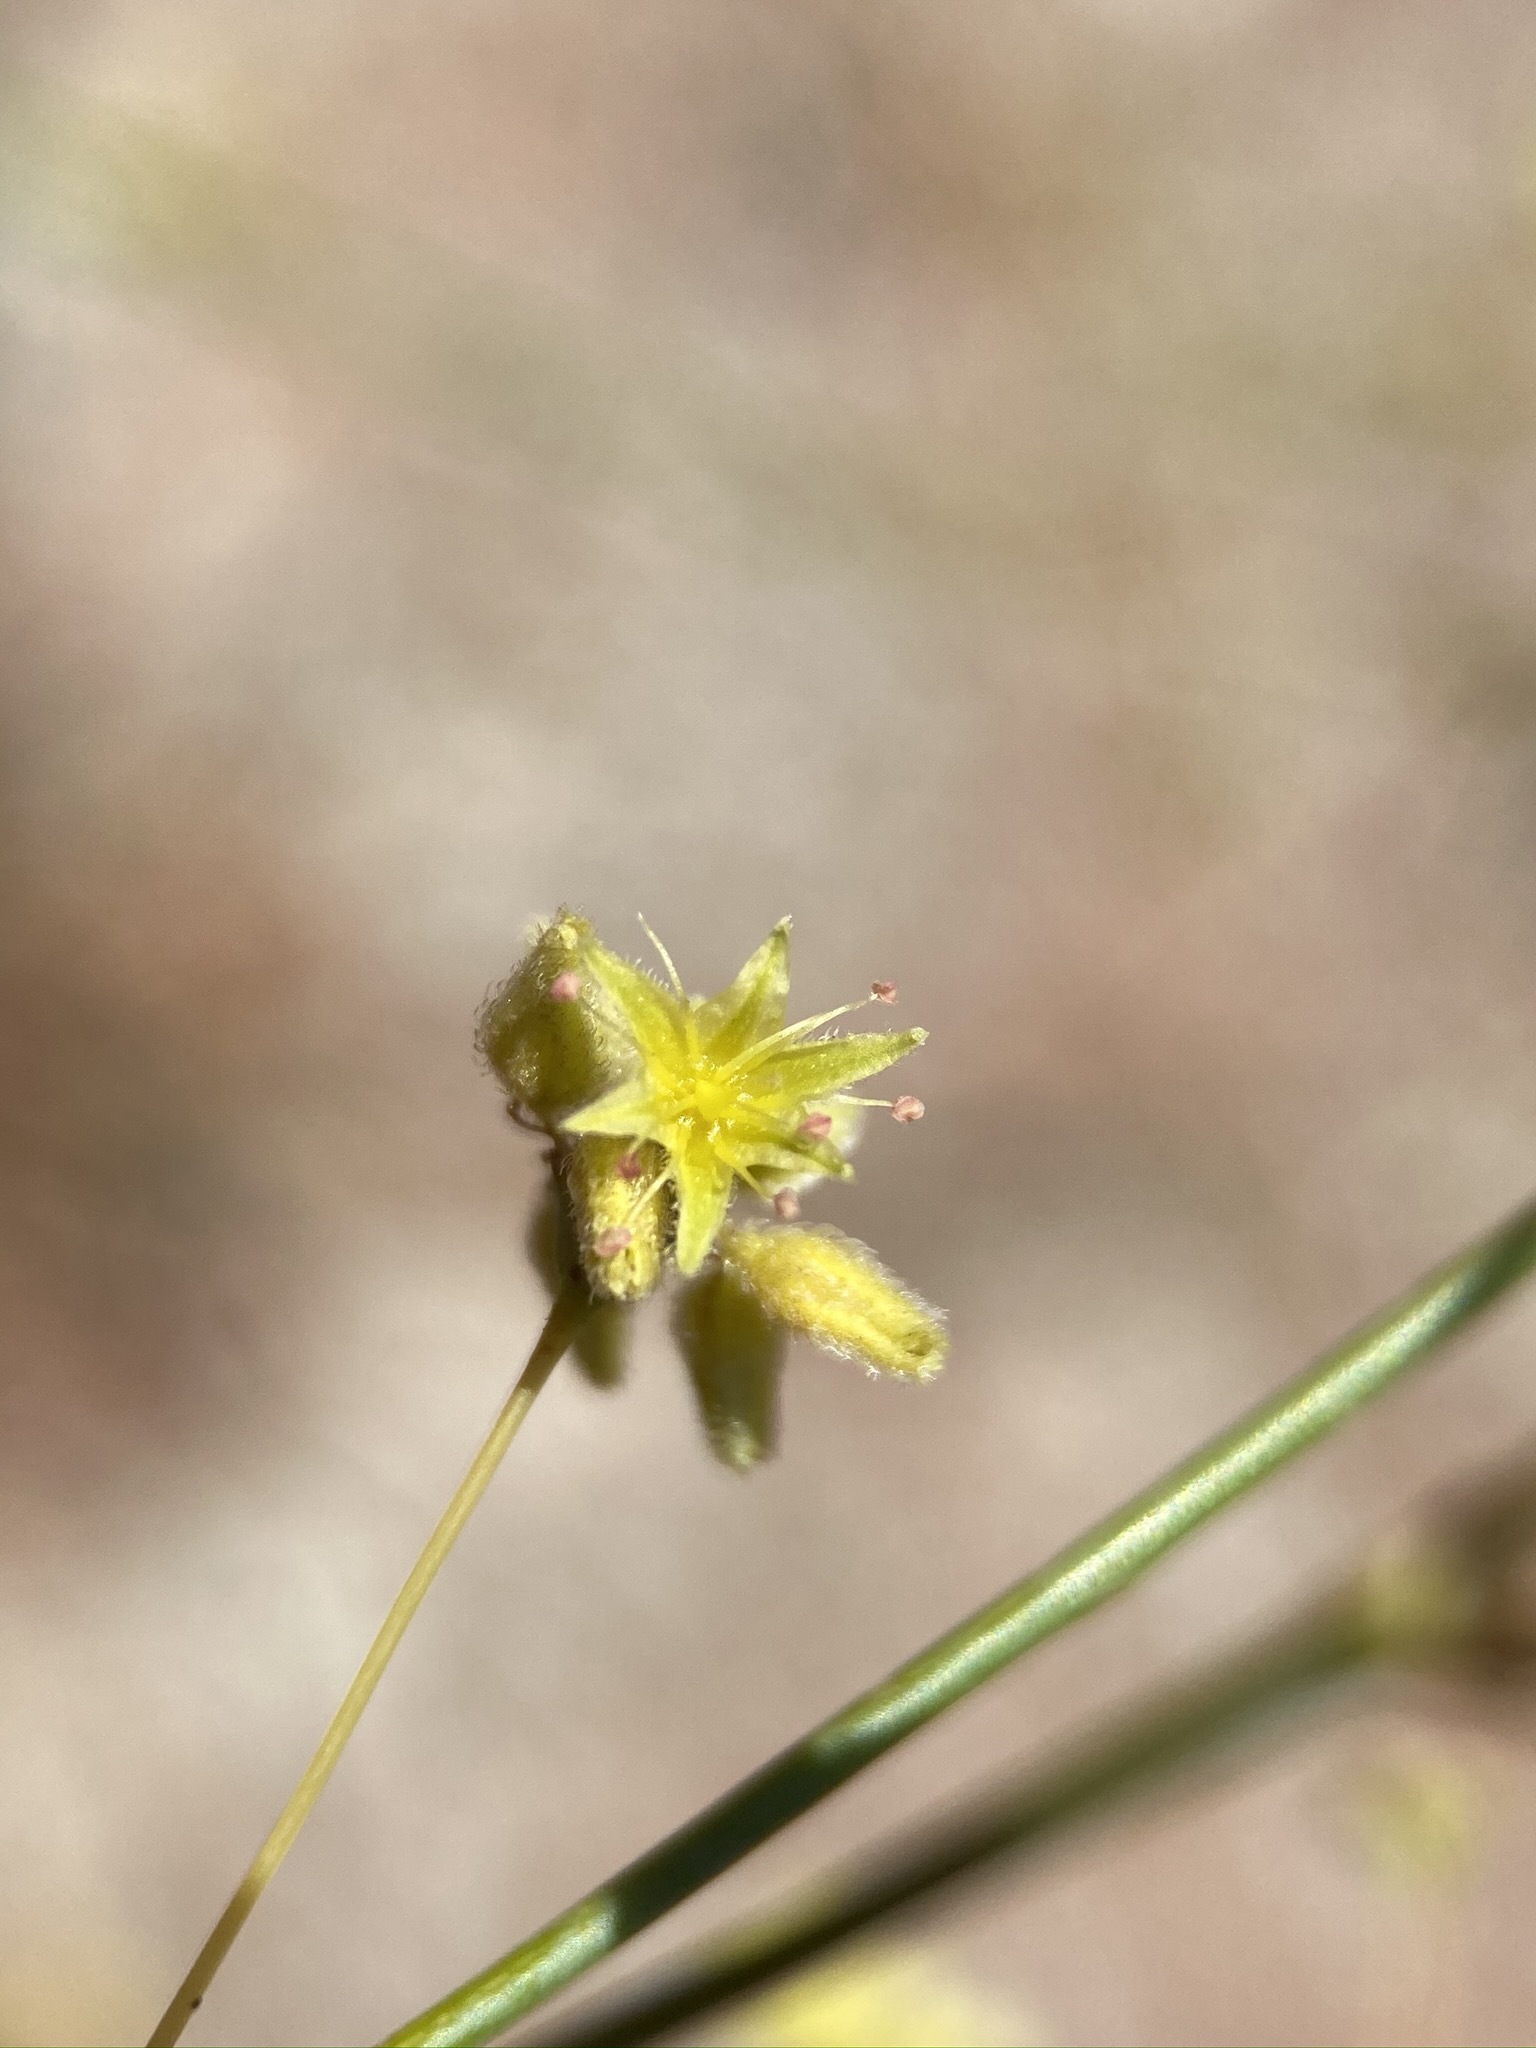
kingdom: Plantae
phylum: Tracheophyta
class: Magnoliopsida
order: Caryophyllales
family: Polygonaceae
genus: Eriogonum
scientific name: Eriogonum inflatum
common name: Desert trumpet
